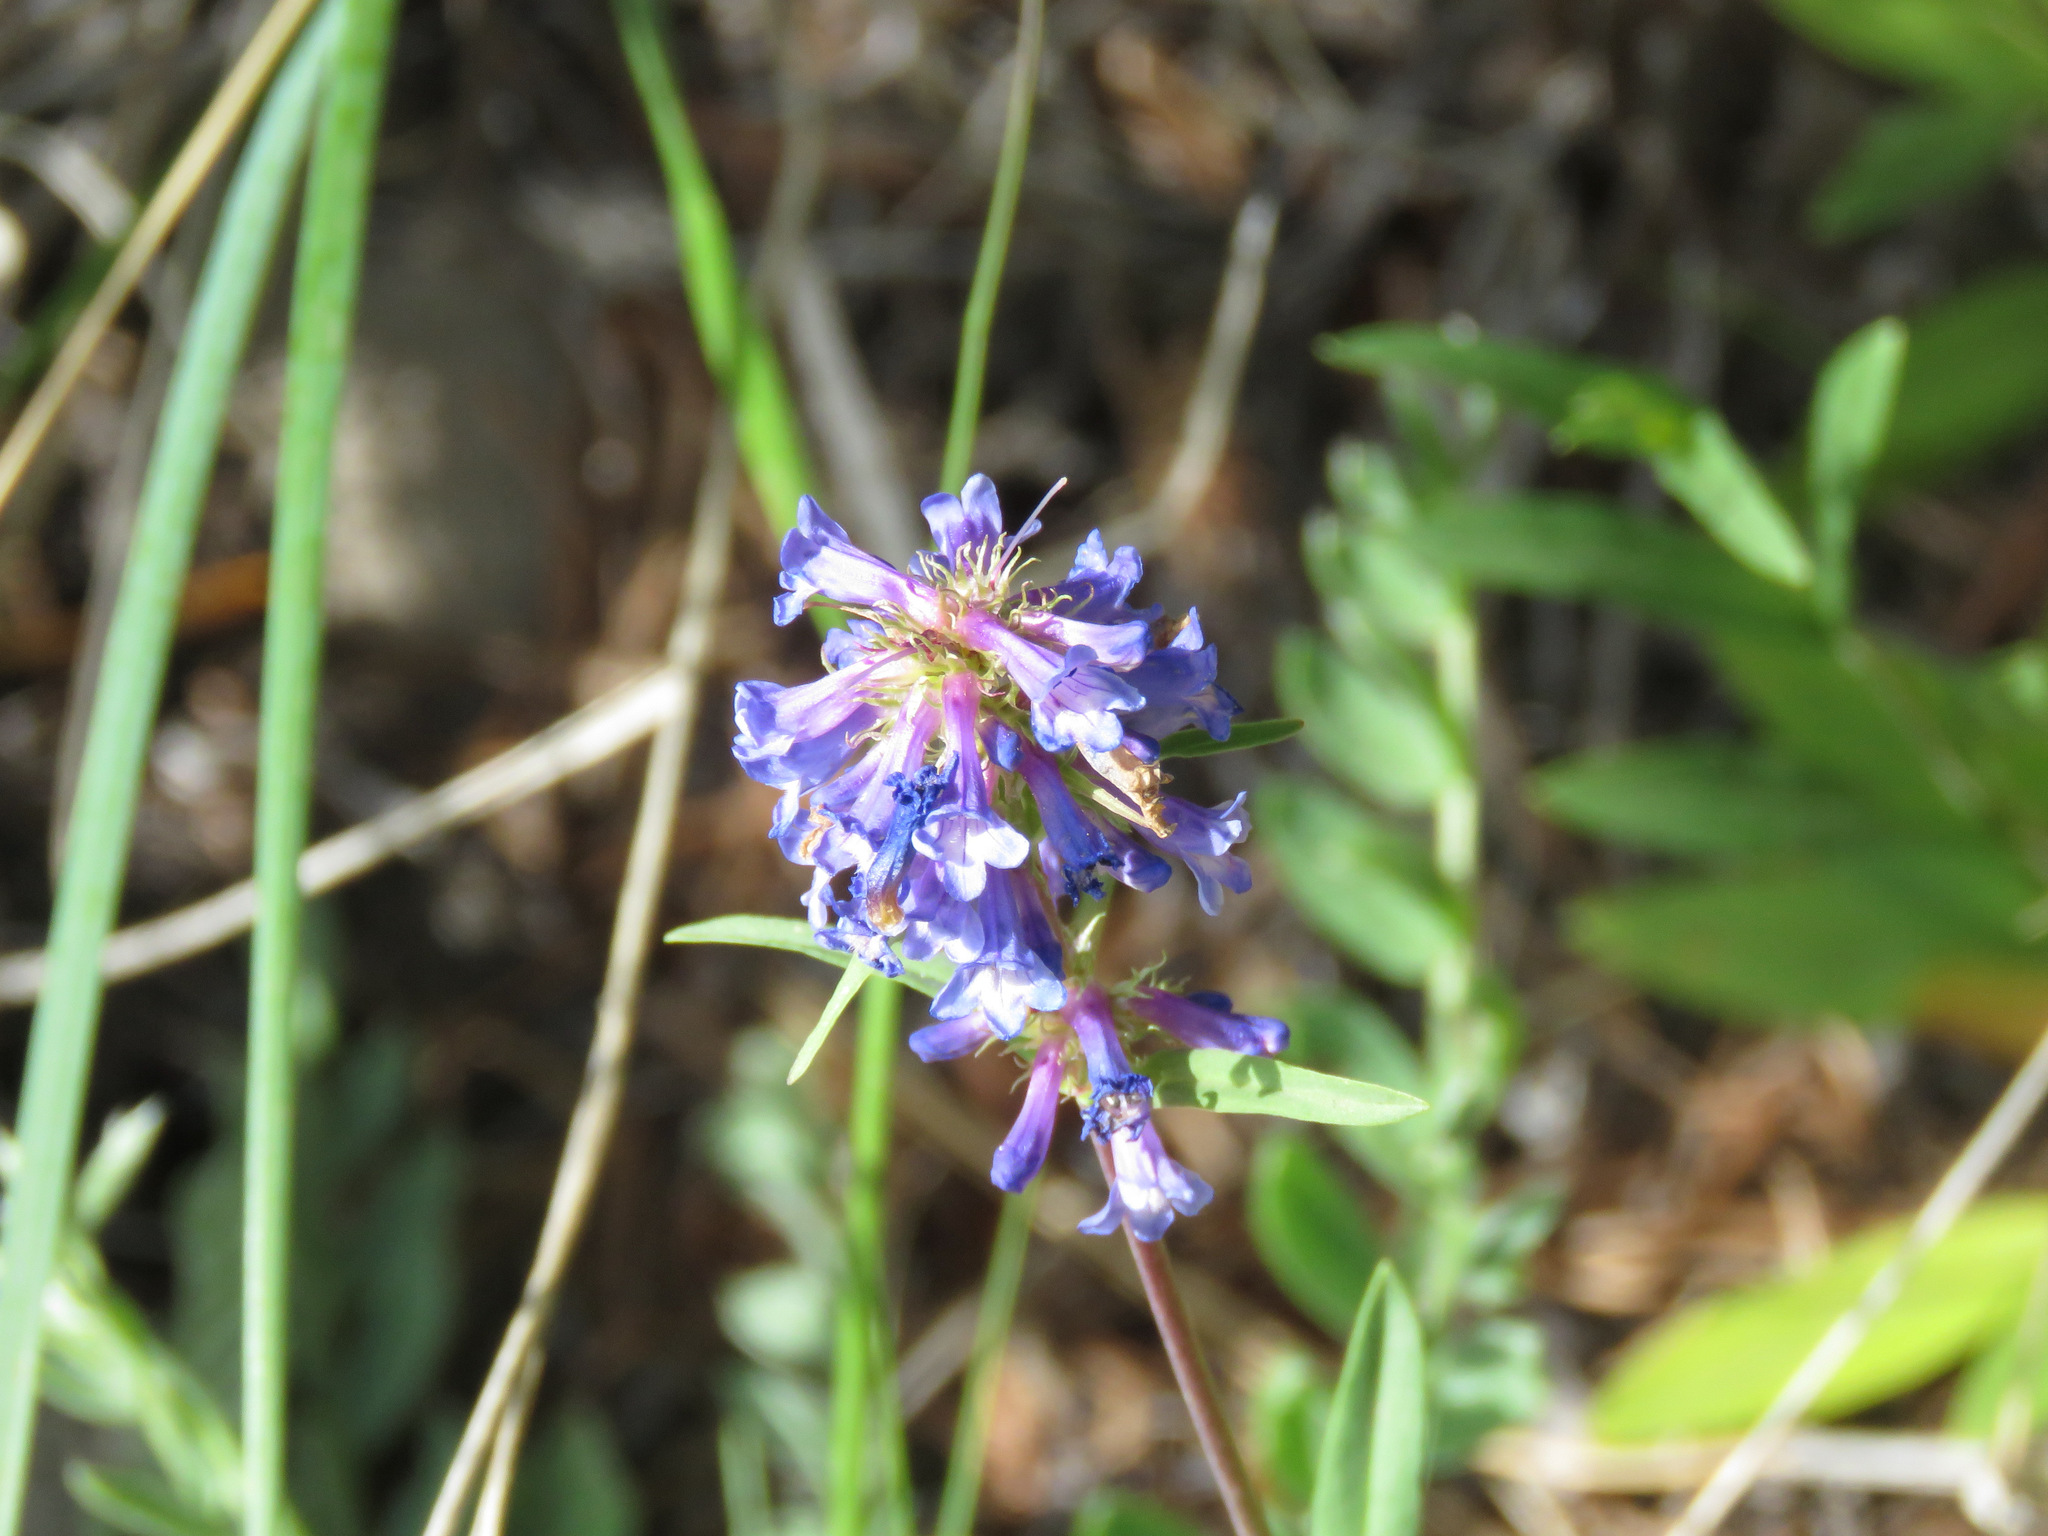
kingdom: Plantae
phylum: Tracheophyta
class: Magnoliopsida
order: Lamiales
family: Plantaginaceae
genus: Penstemon
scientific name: Penstemon procerus
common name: Small-flower penstemon
